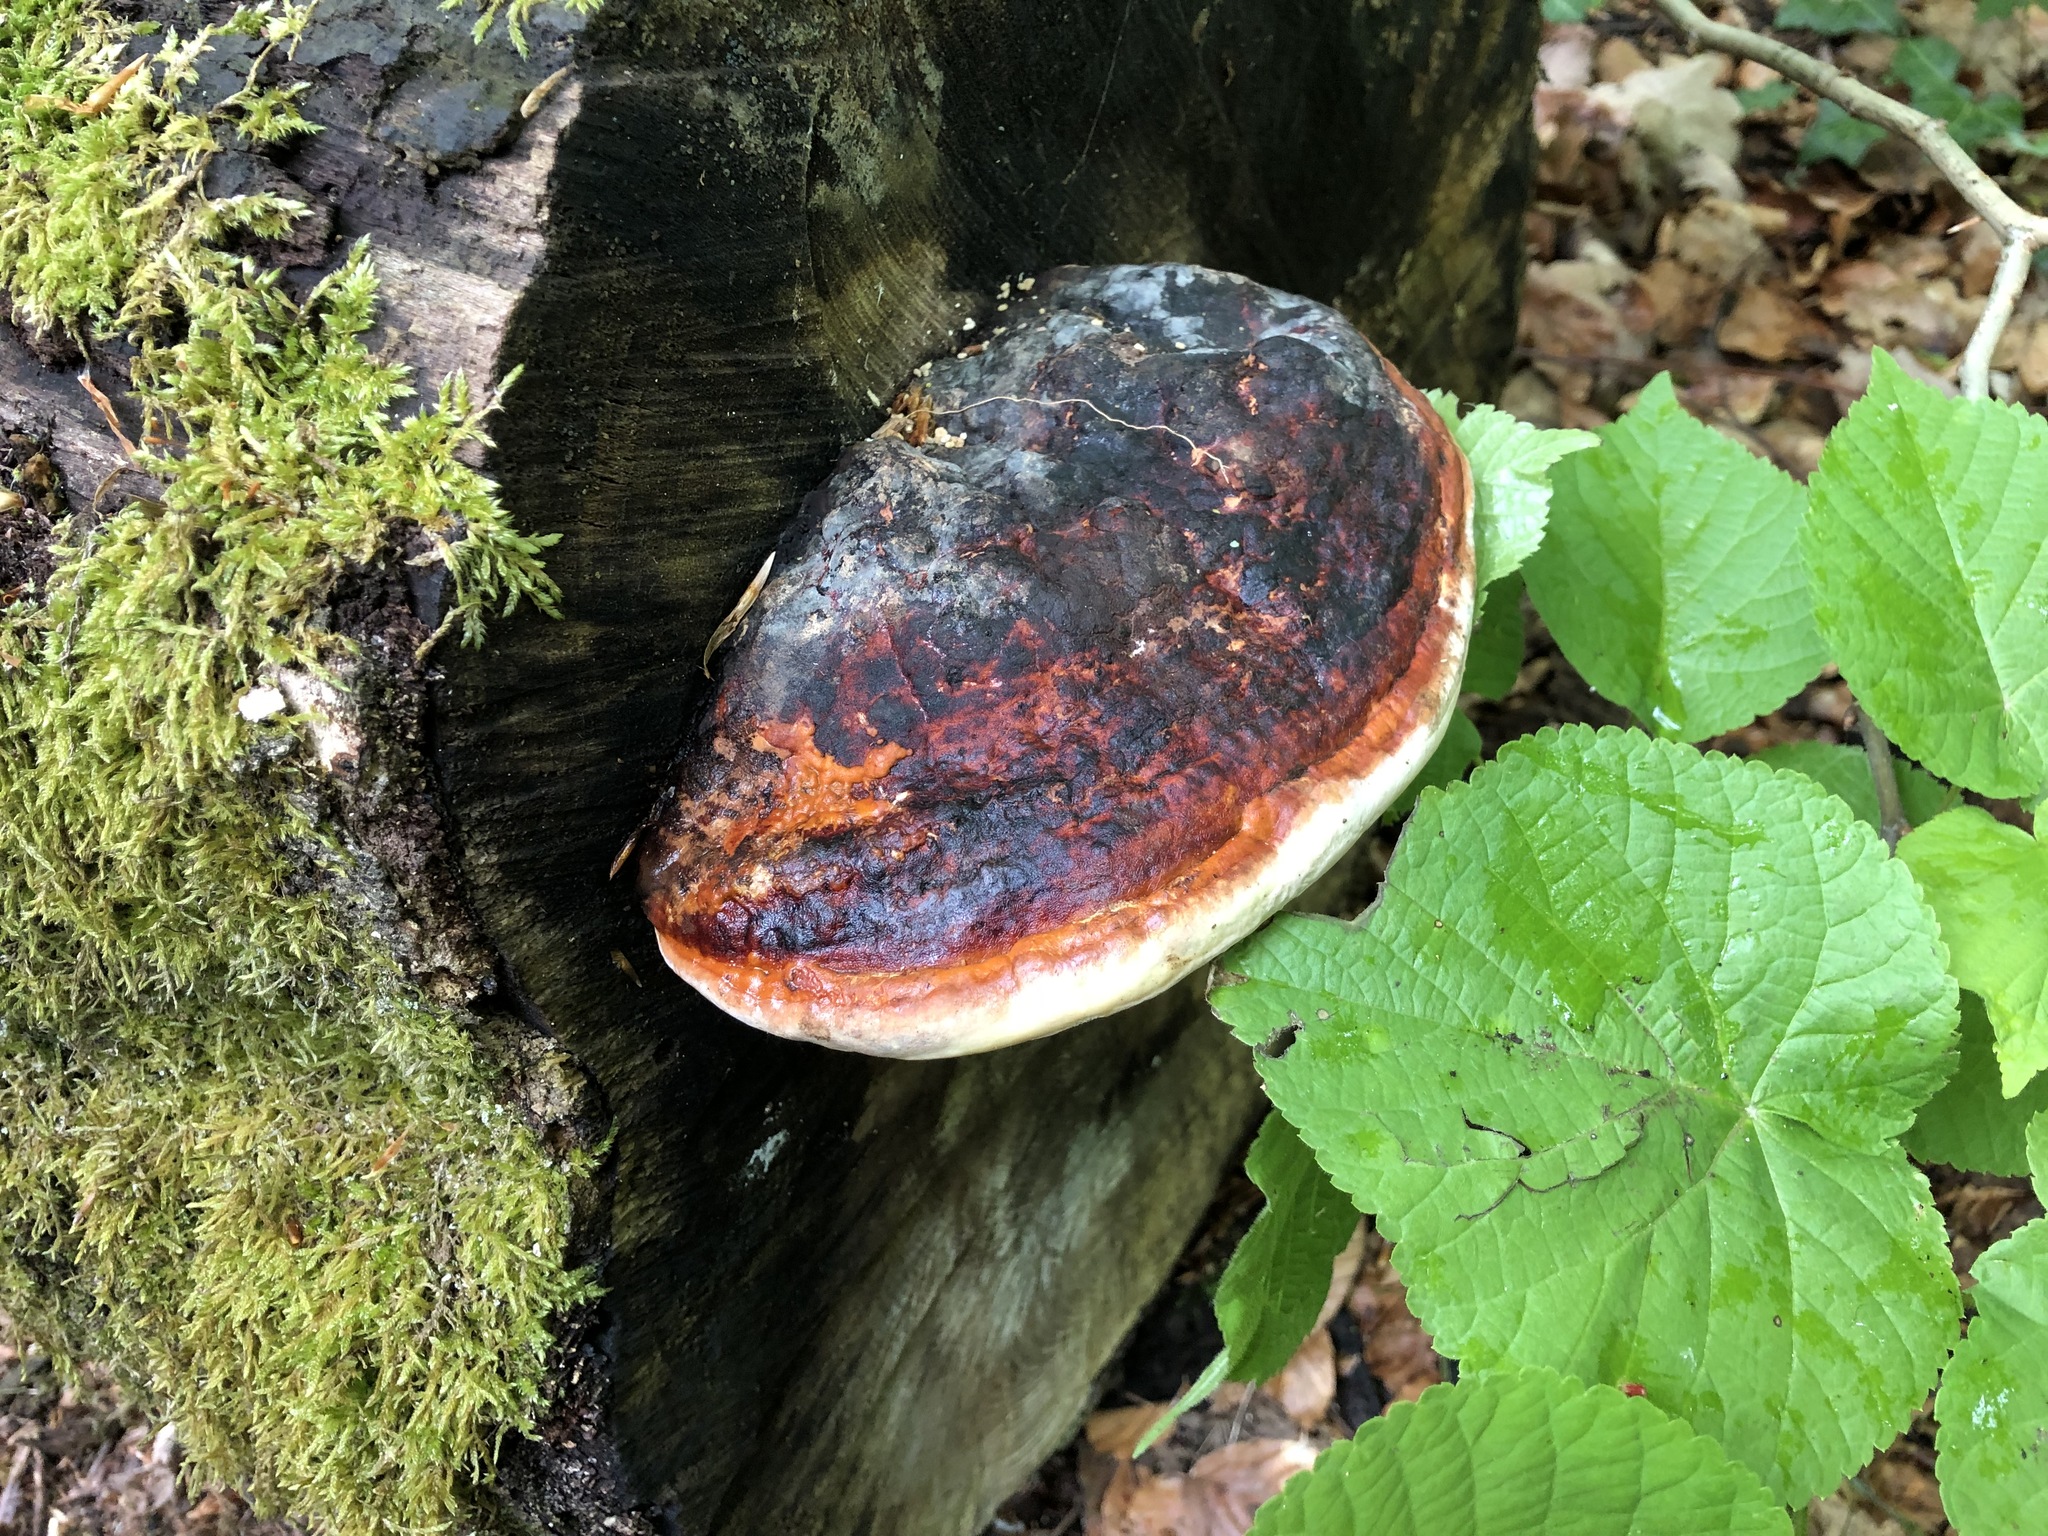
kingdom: Fungi
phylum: Basidiomycota
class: Agaricomycetes
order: Polyporales
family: Fomitopsidaceae
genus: Fomitopsis
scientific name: Fomitopsis pinicola
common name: Red-belted bracket
